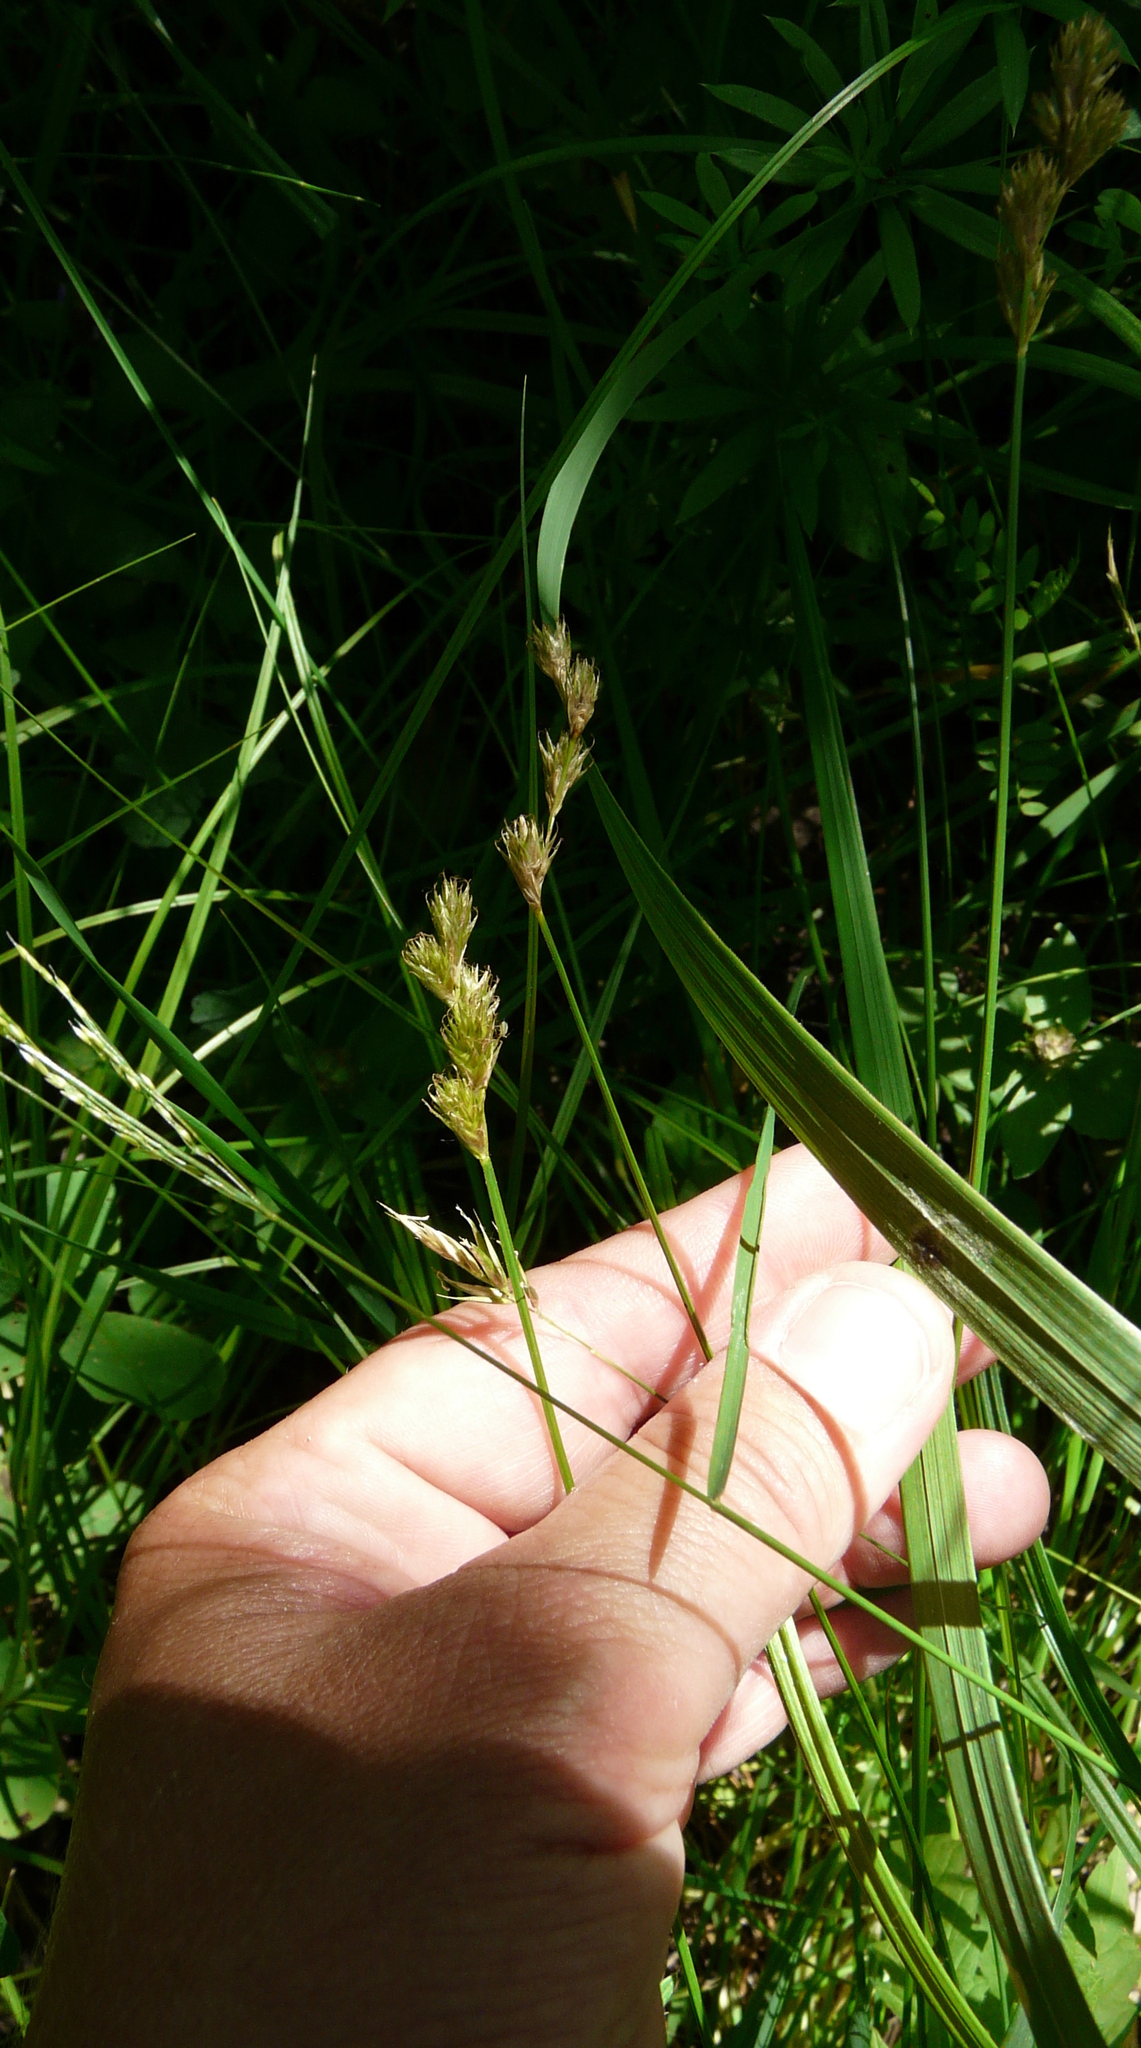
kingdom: Plantae
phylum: Tracheophyta
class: Liliopsida
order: Poales
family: Cyperaceae
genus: Carex
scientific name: Carex leporina
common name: Oval sedge
